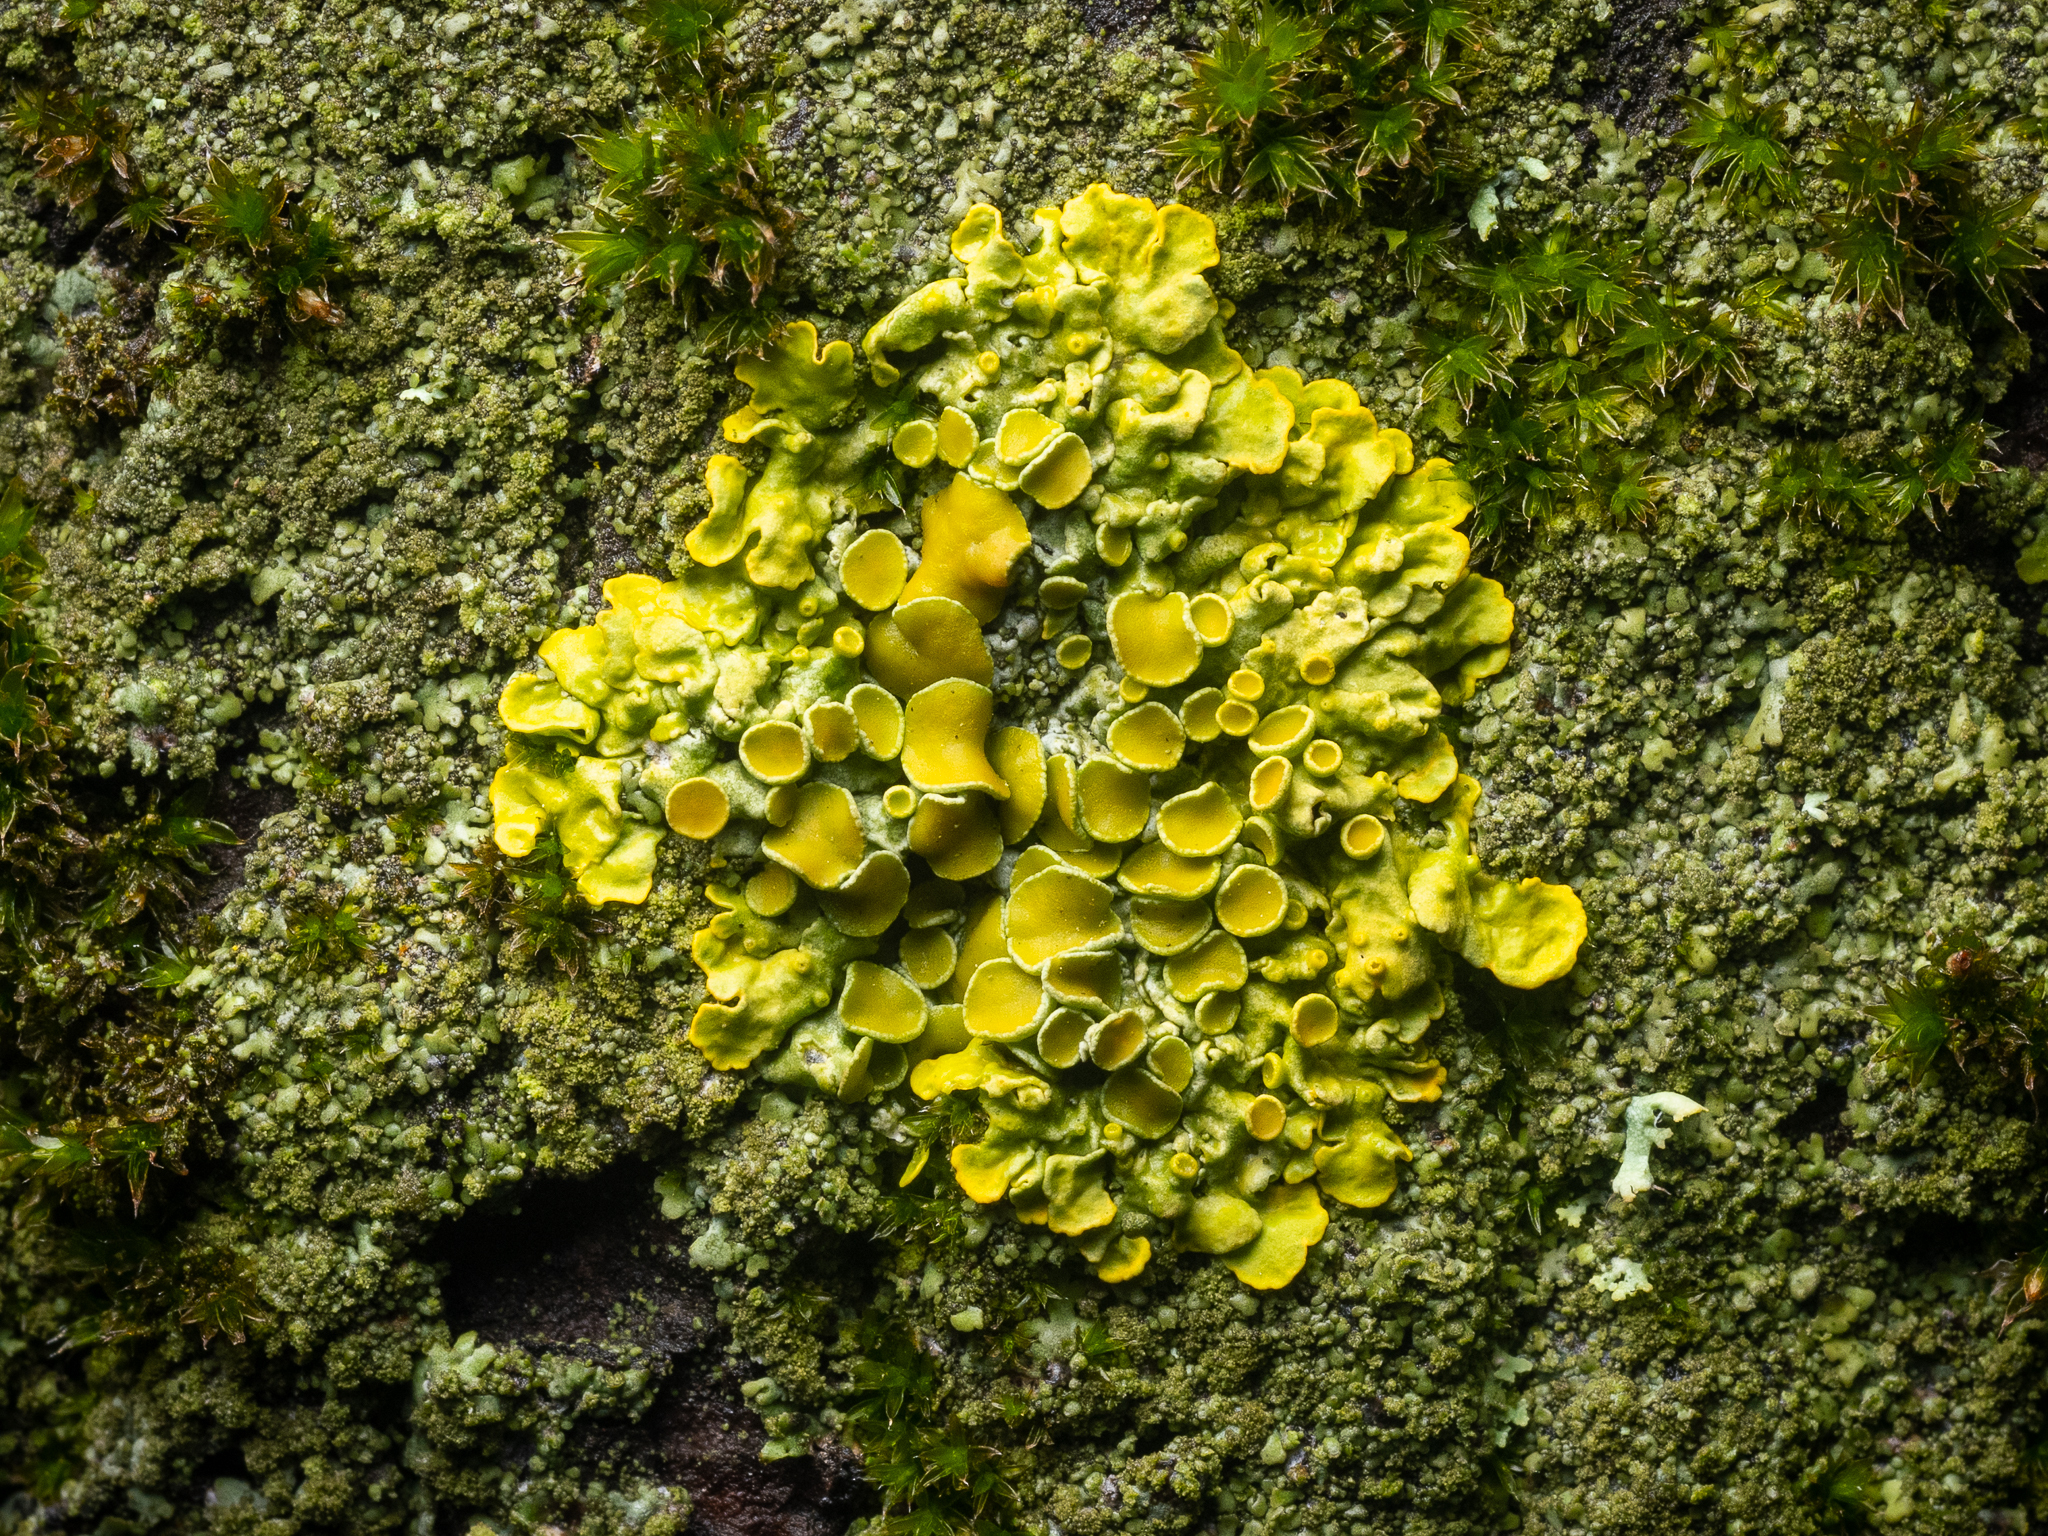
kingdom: Fungi
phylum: Ascomycota
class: Lecanoromycetes
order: Teloschistales
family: Teloschistaceae
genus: Xanthoria
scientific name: Xanthoria parietina
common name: Common orange lichen
